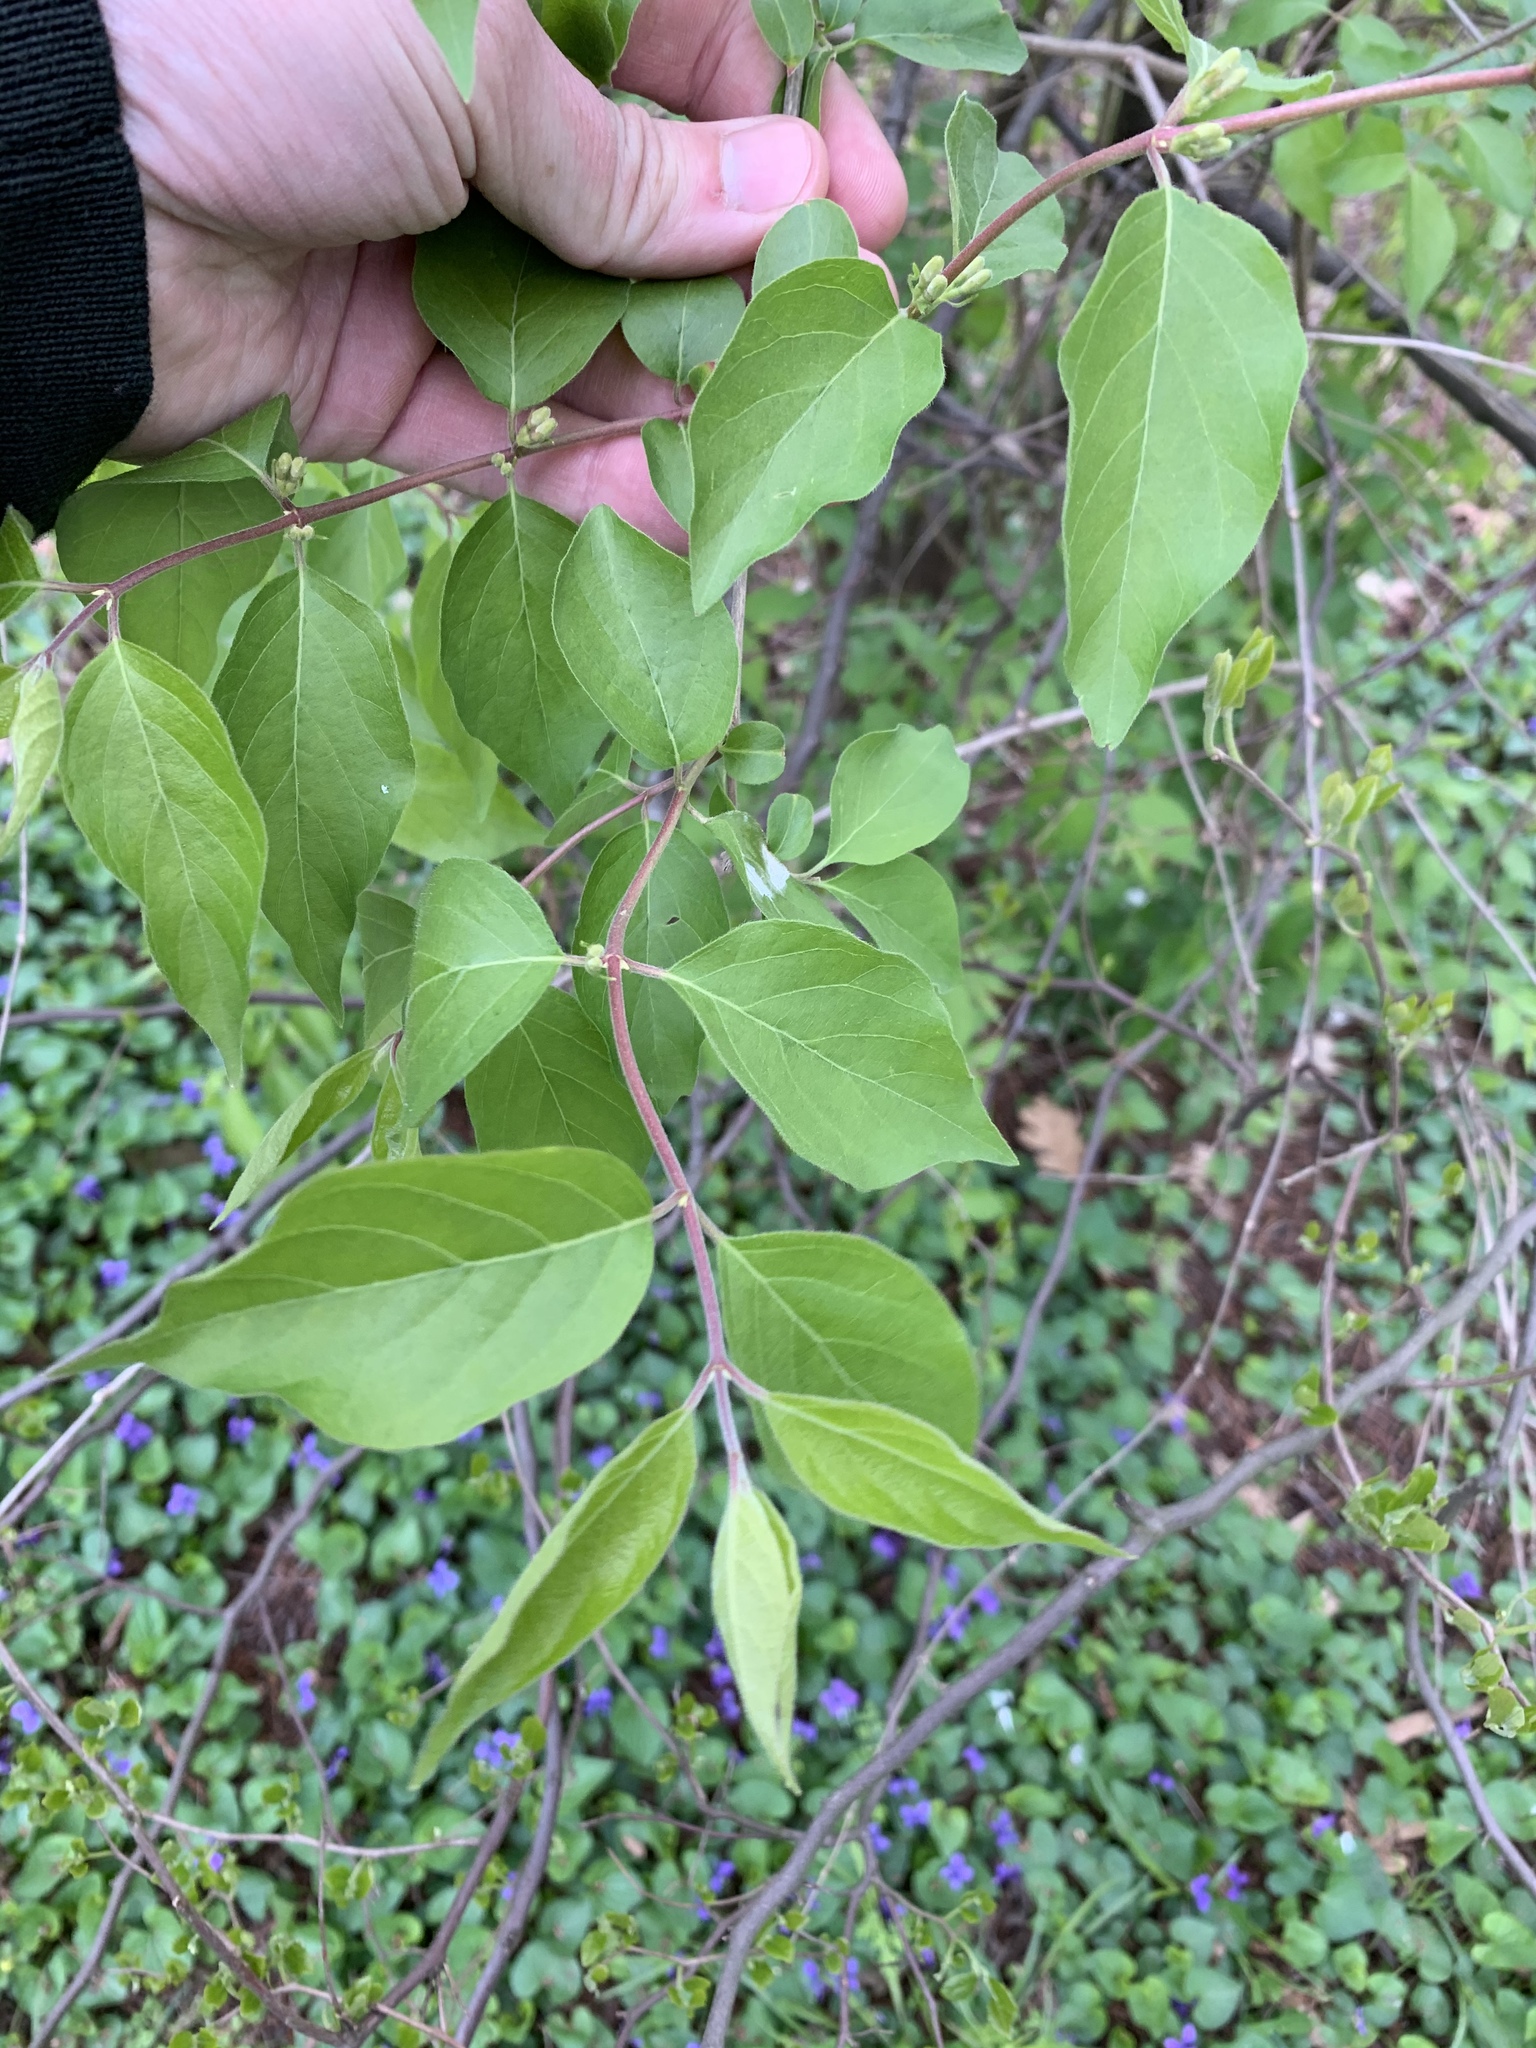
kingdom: Plantae
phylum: Tracheophyta
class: Magnoliopsida
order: Dipsacales
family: Caprifoliaceae
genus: Lonicera
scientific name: Lonicera maackii
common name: Amur honeysuckle
